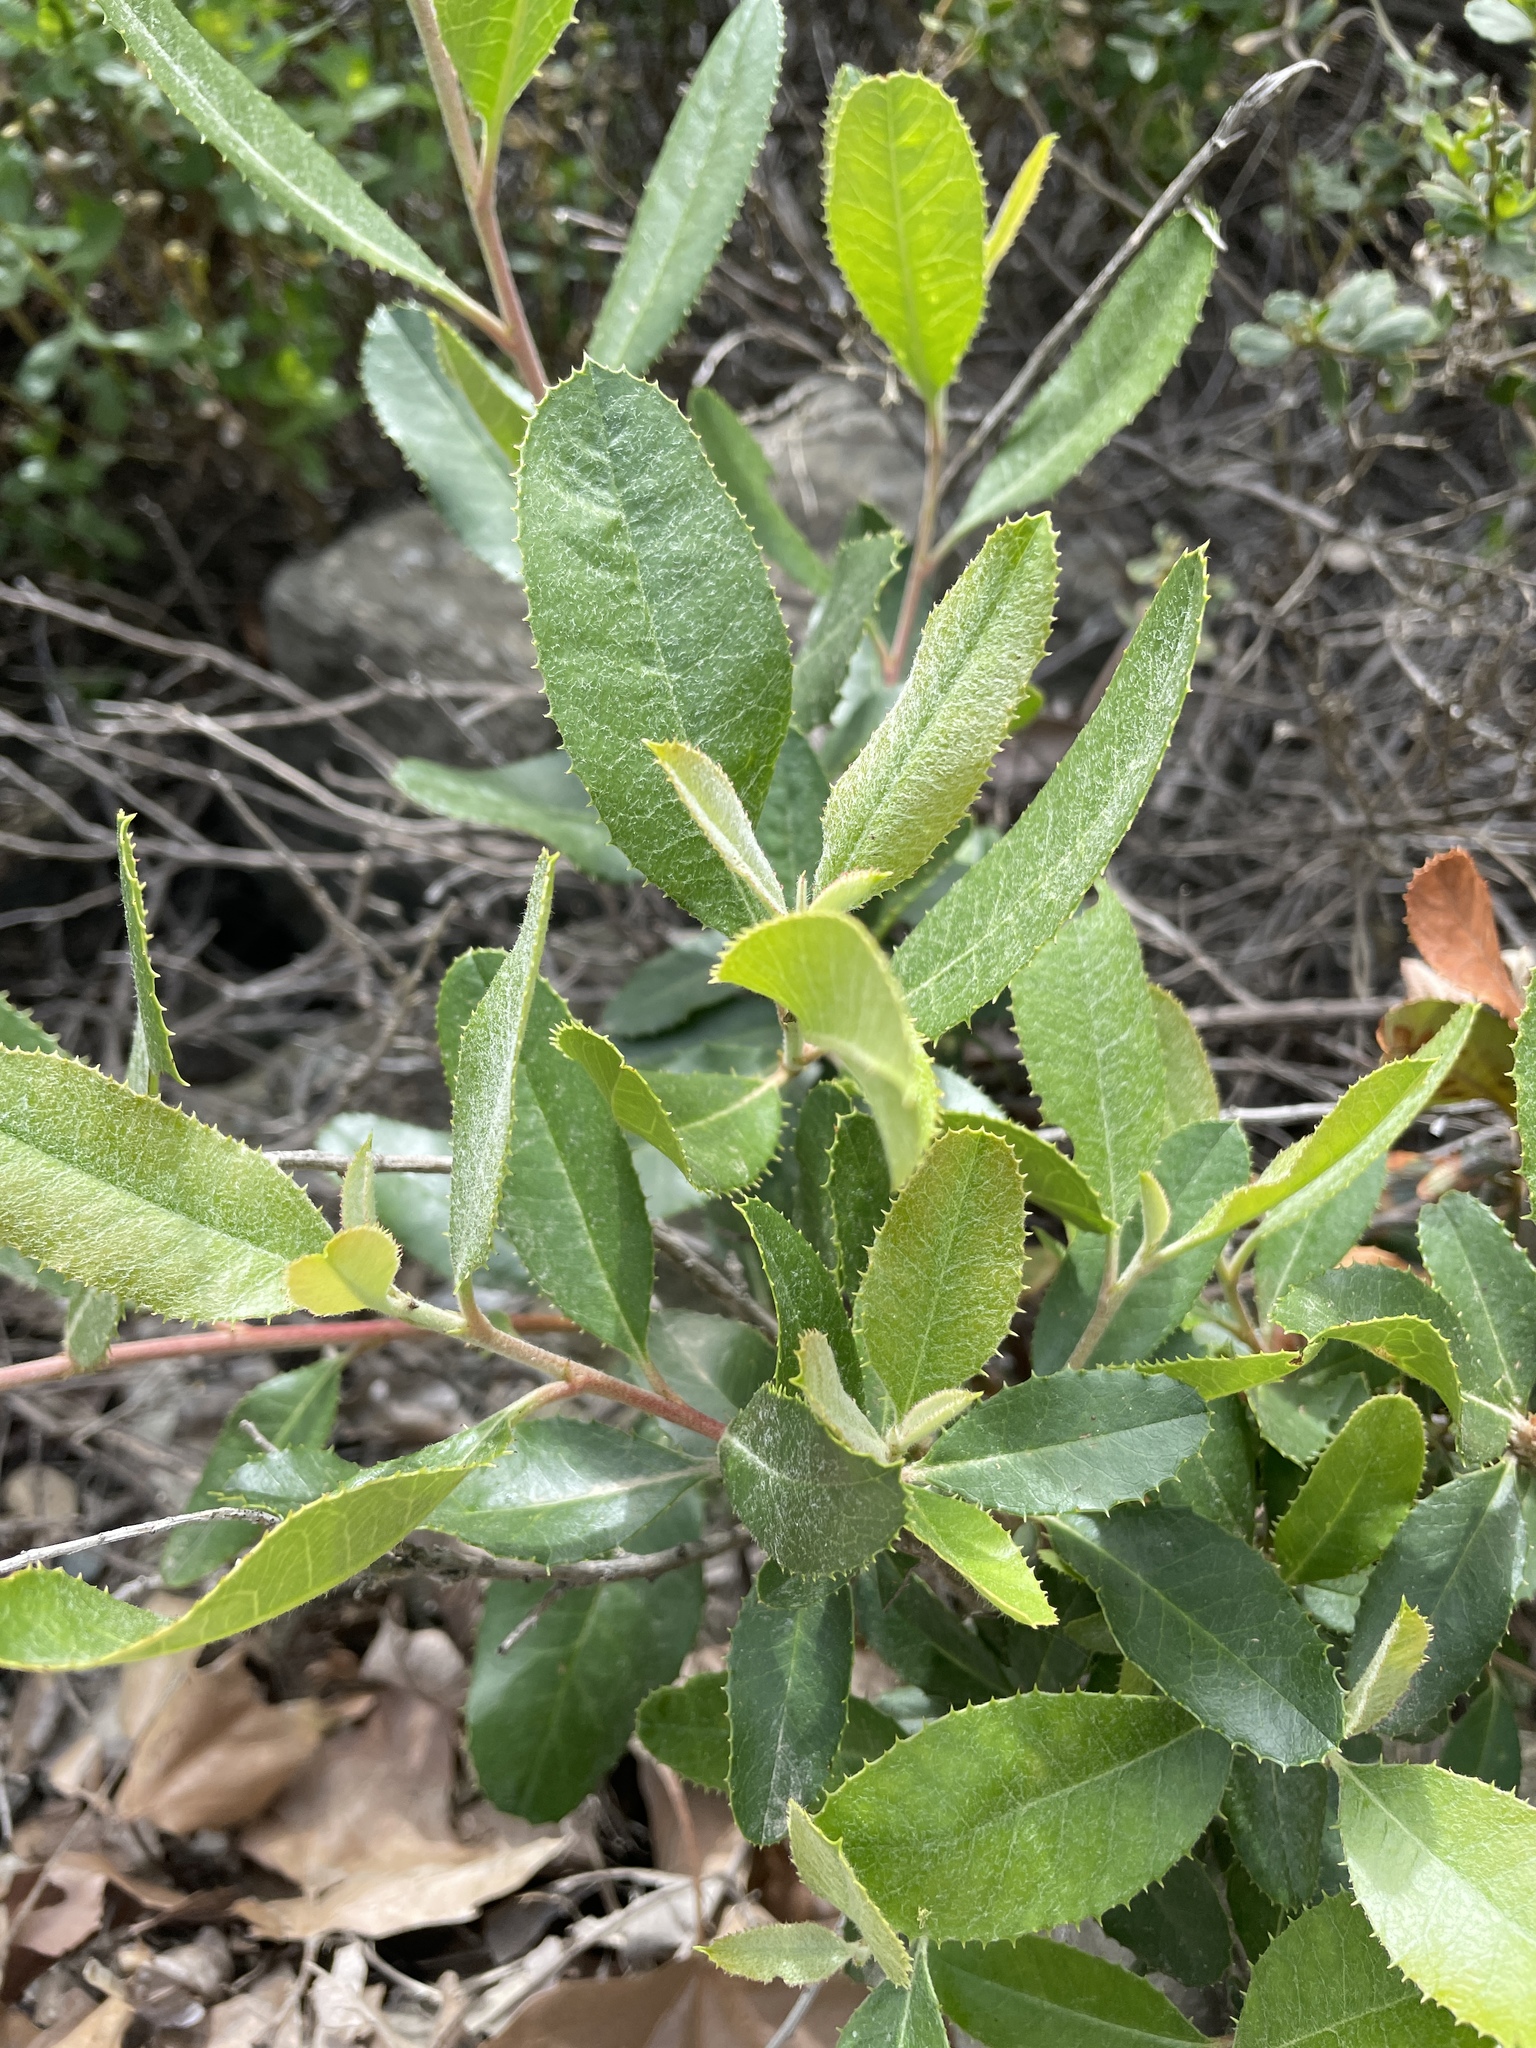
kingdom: Plantae
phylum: Tracheophyta
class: Magnoliopsida
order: Rosales
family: Rosaceae
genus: Heteromeles
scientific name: Heteromeles arbutifolia
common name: California-holly
